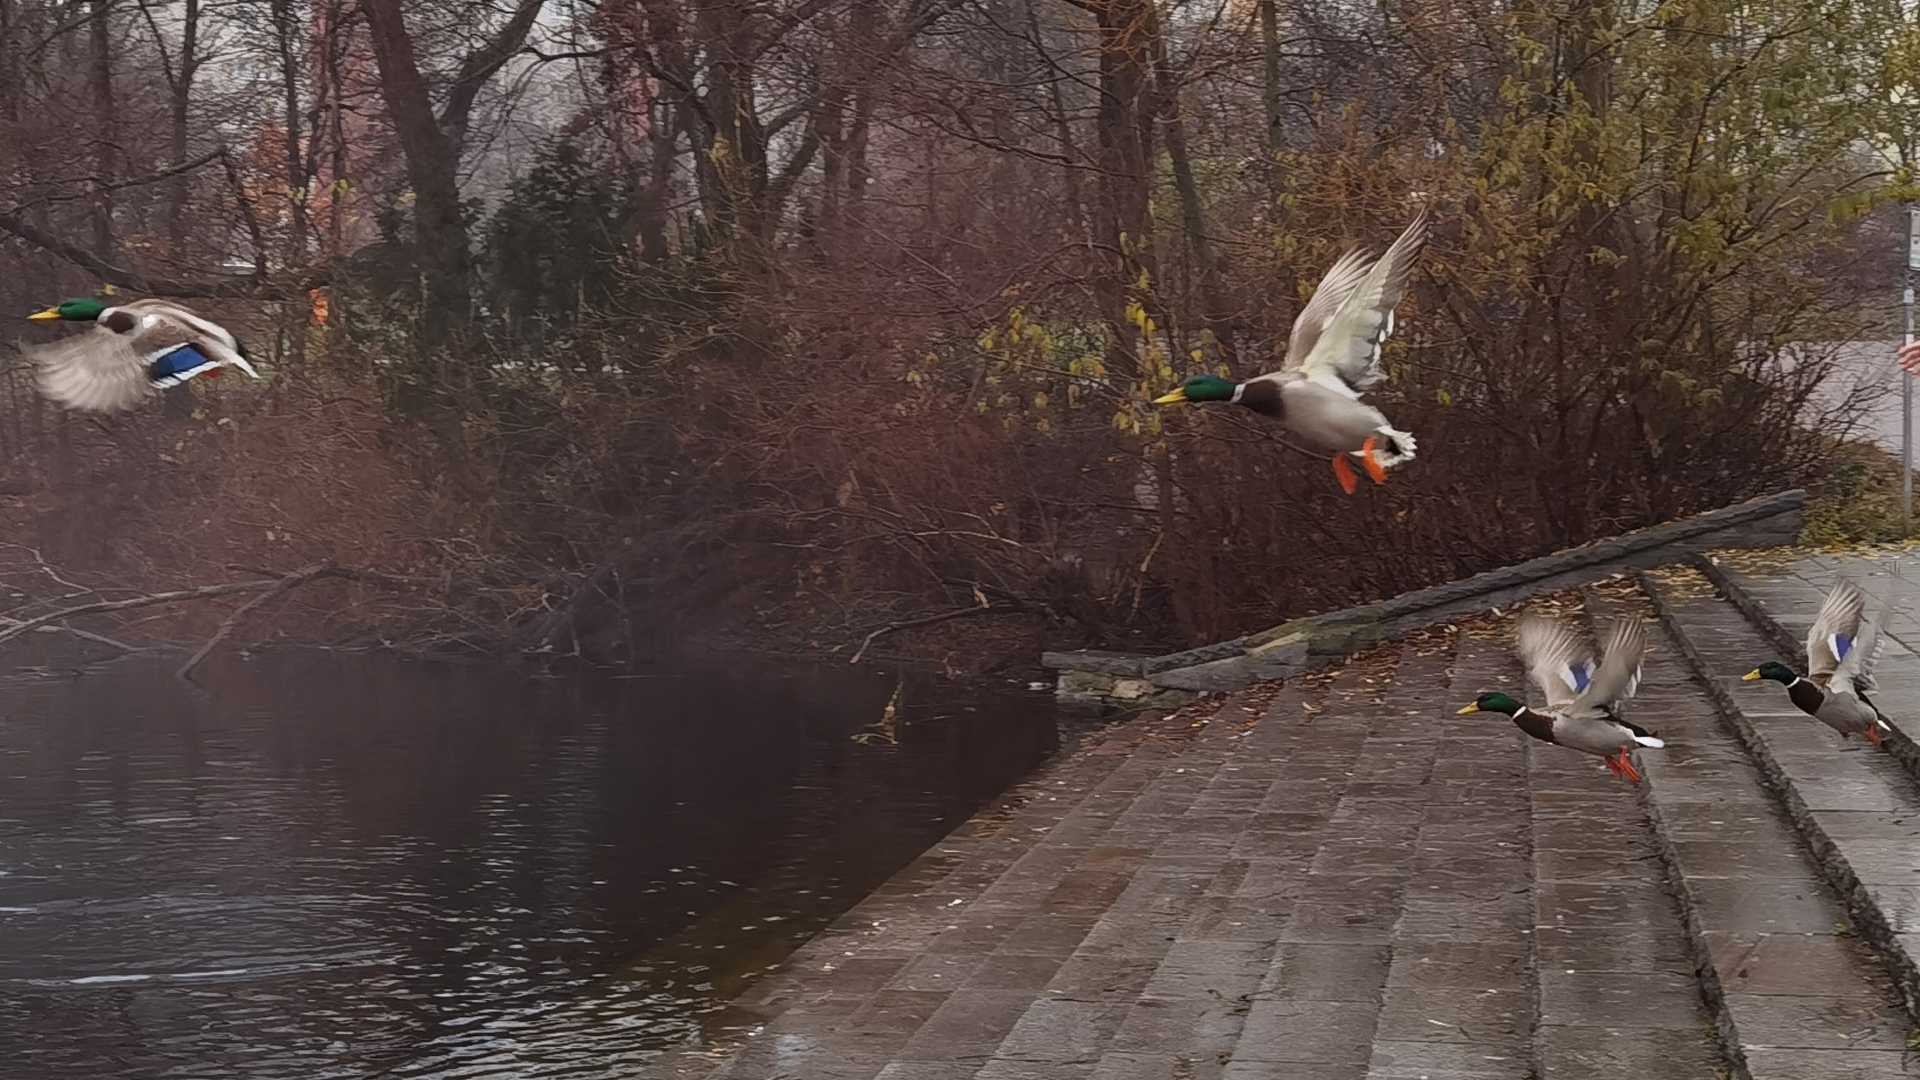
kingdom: Animalia
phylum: Chordata
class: Aves
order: Anseriformes
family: Anatidae
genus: Anas
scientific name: Anas platyrhynchos
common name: Mallard
